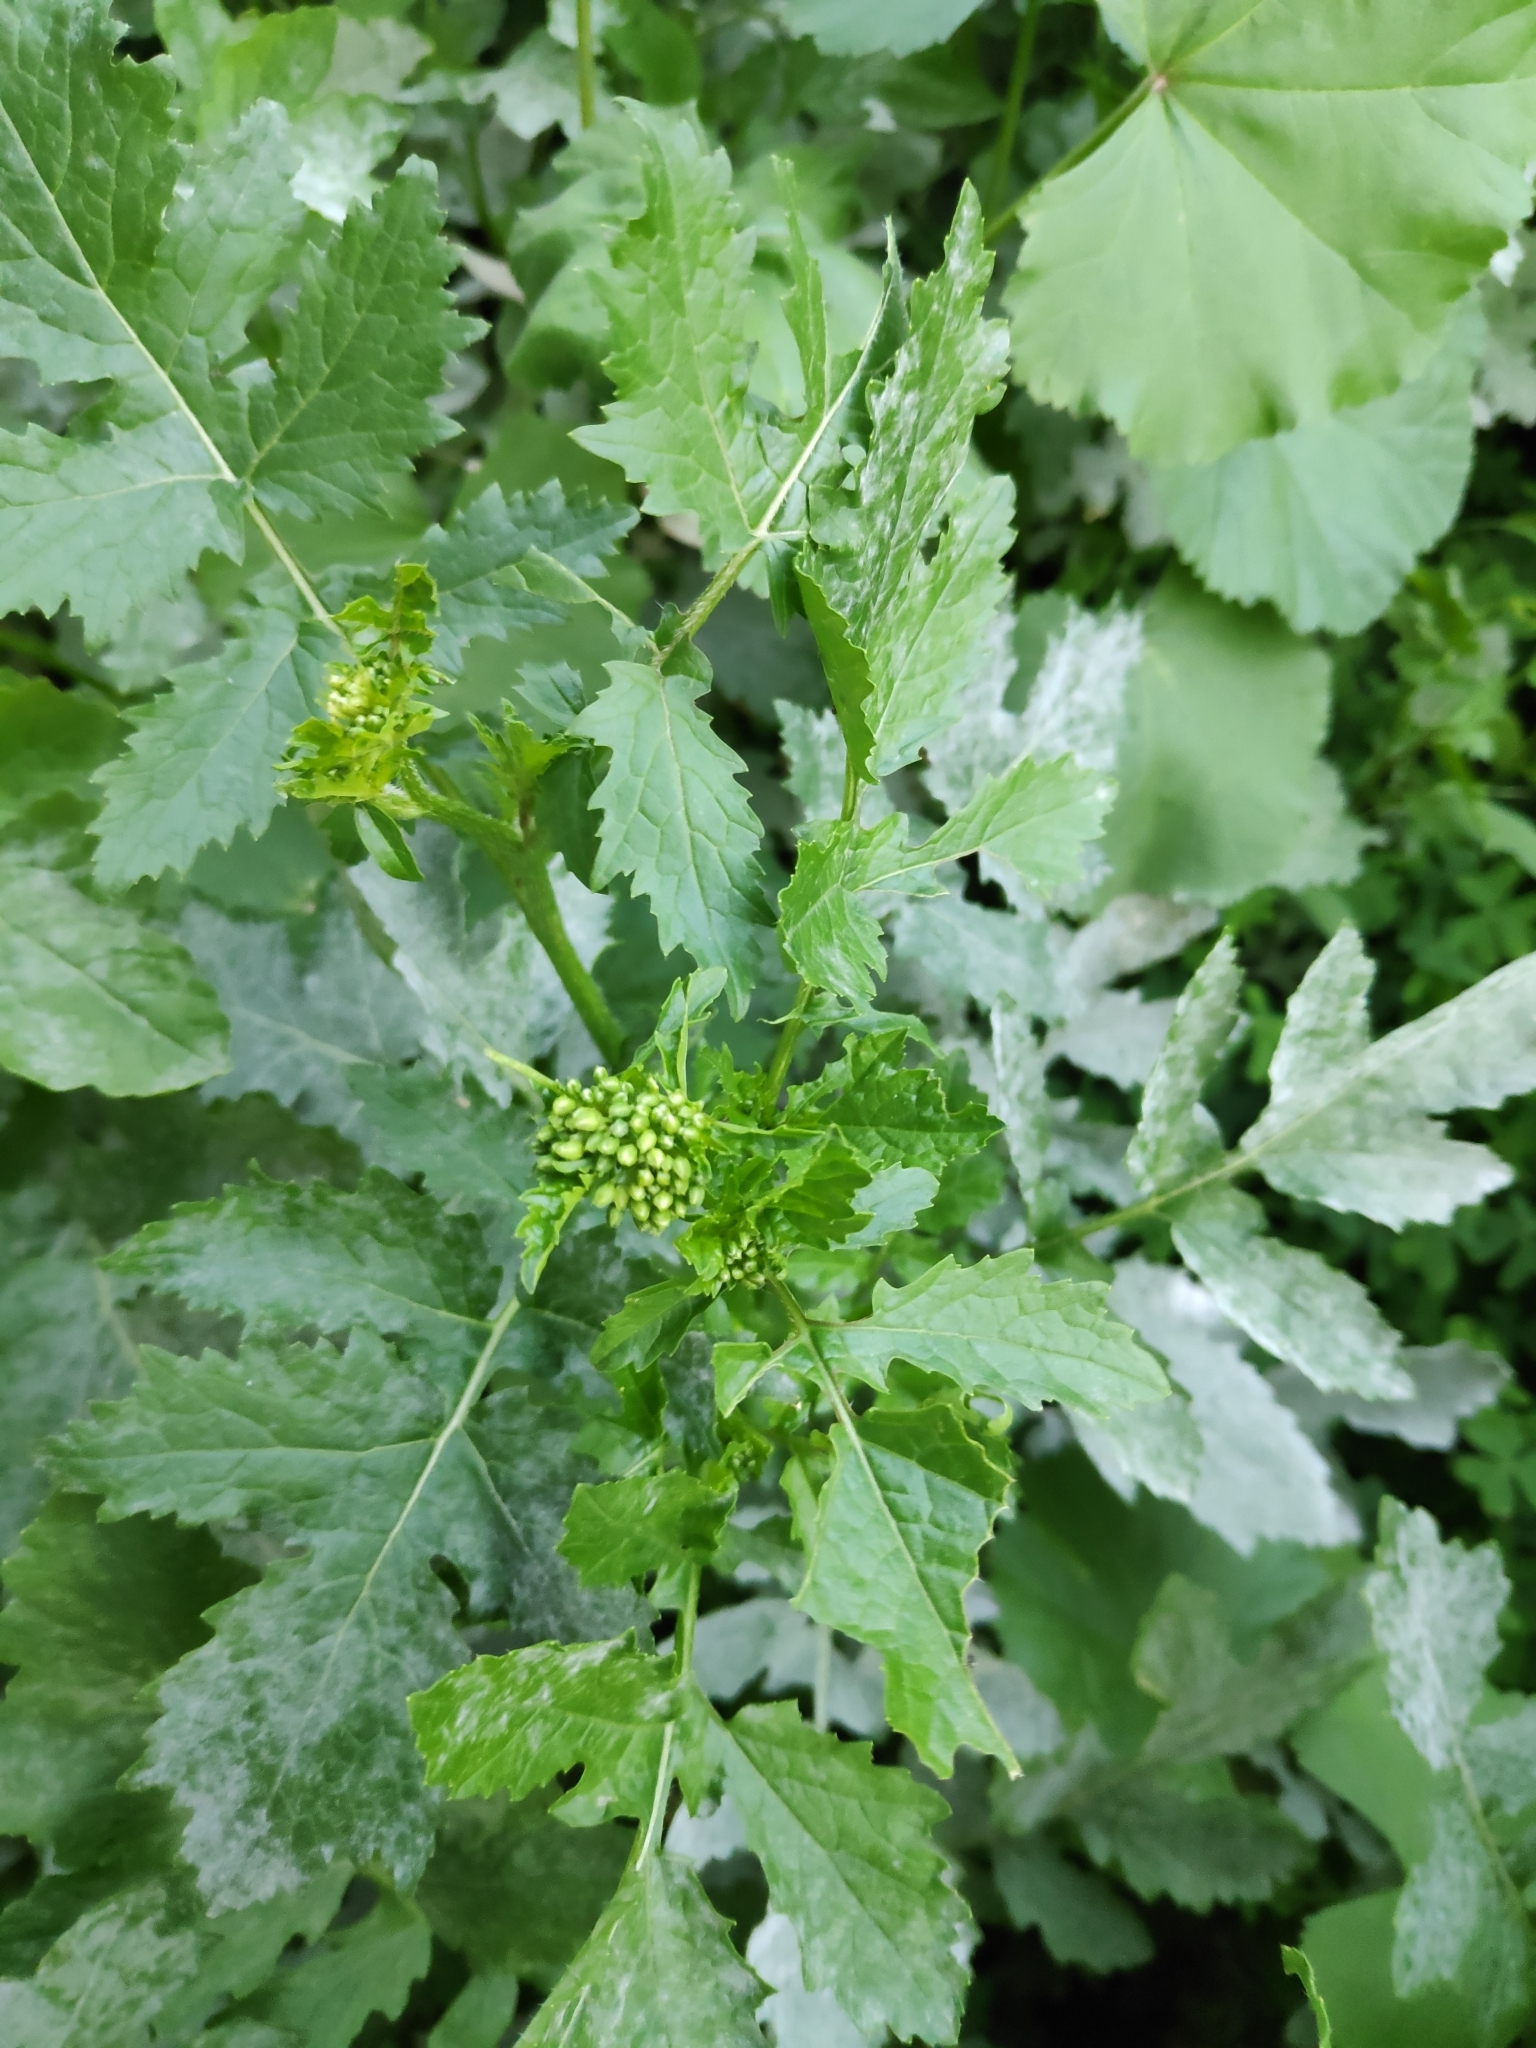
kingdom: Plantae
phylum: Tracheophyta
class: Magnoliopsida
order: Brassicales
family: Brassicaceae
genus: Sinapis
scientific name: Sinapis alba
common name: White mustard
